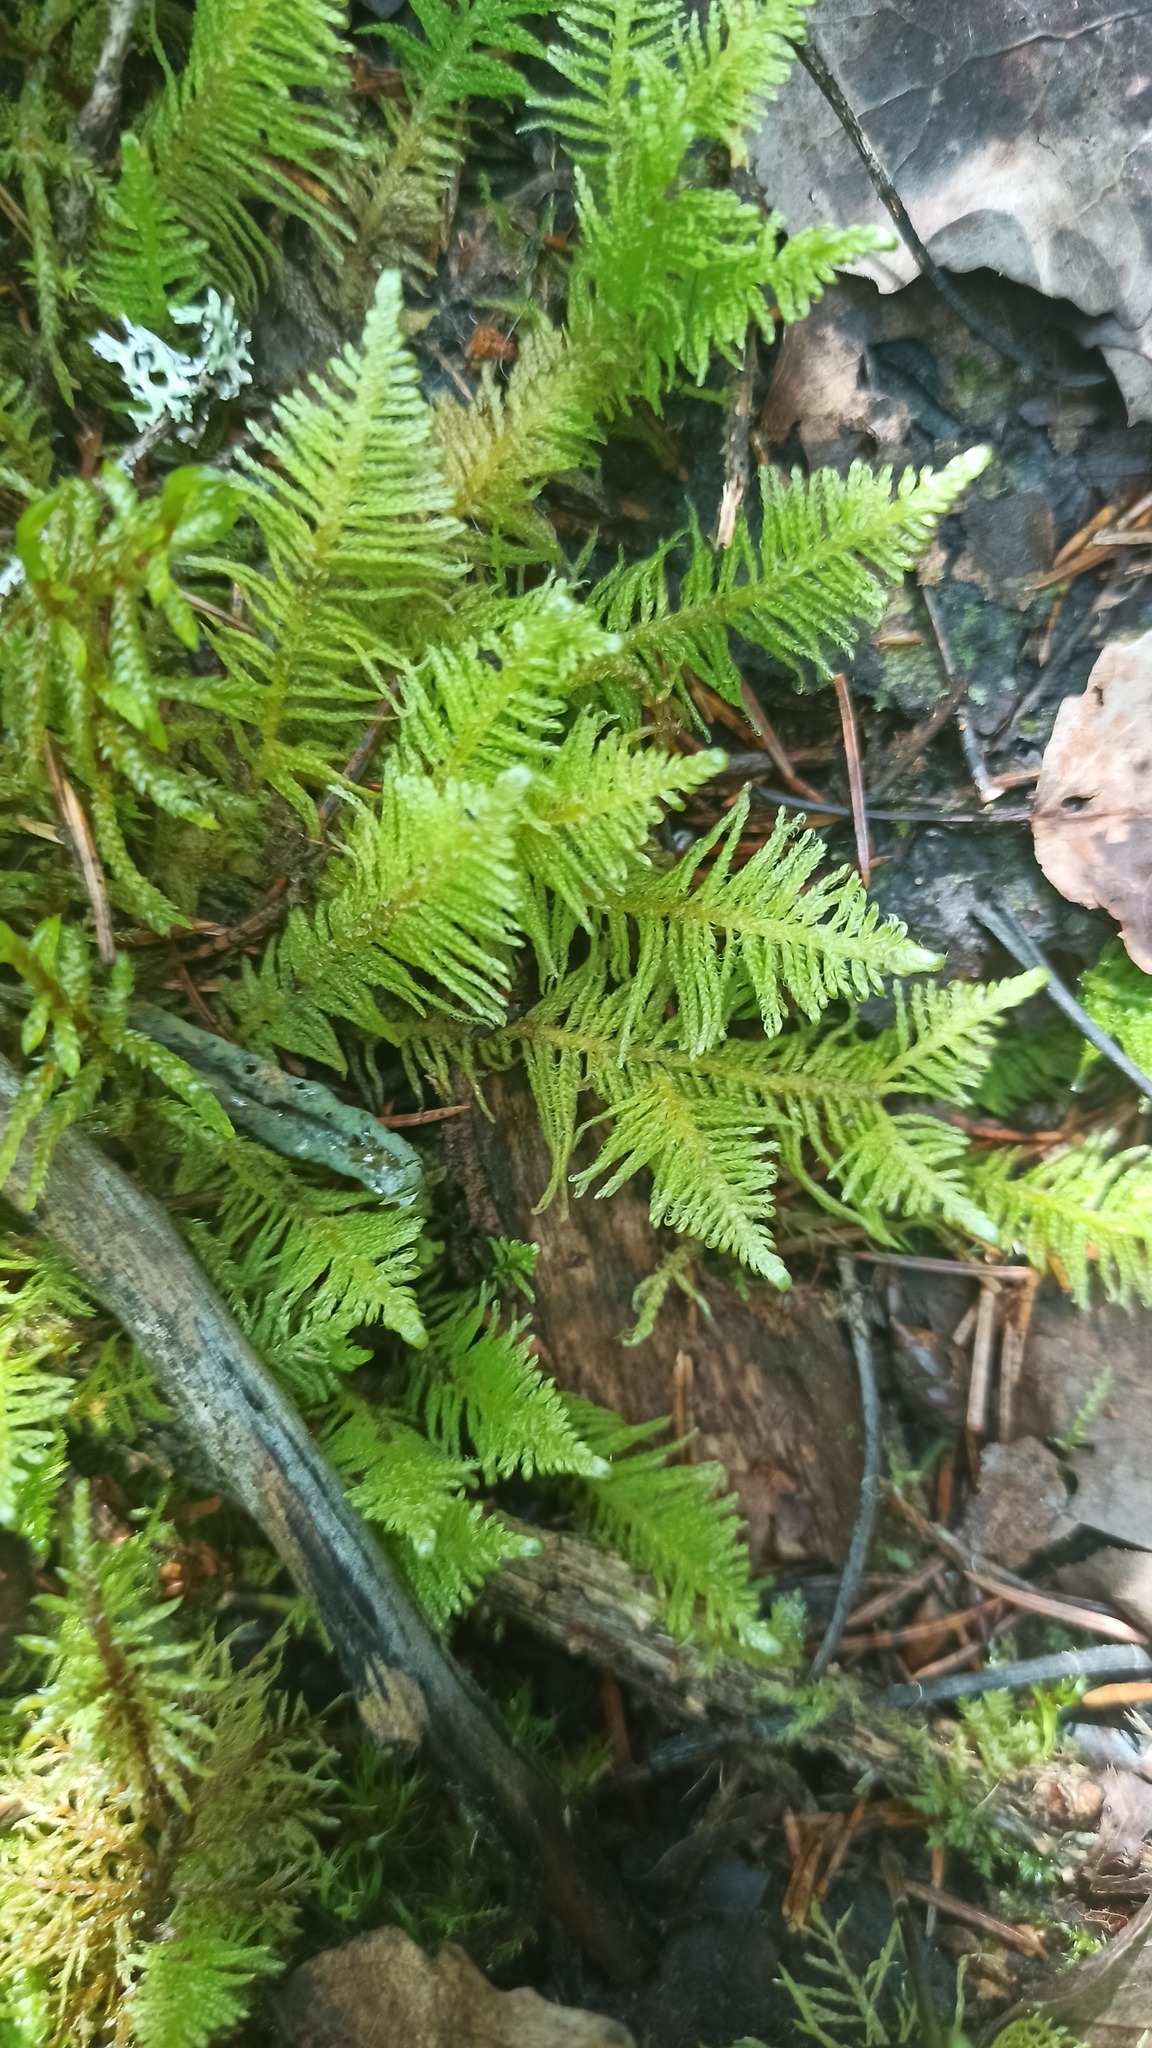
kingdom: Plantae
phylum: Bryophyta
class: Bryopsida
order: Hypnales
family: Pylaisiaceae
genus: Ptilium
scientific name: Ptilium crista-castrensis
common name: Knight's plume moss
